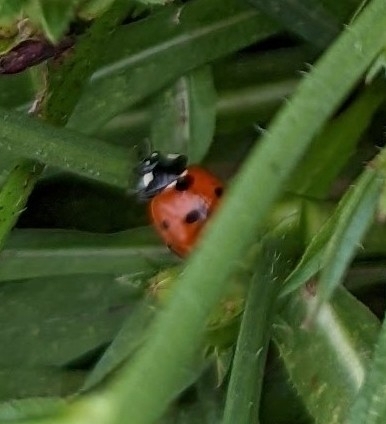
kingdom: Animalia
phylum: Arthropoda
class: Insecta
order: Coleoptera
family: Coccinellidae
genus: Coccinella
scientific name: Coccinella septempunctata
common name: Sevenspotted lady beetle
